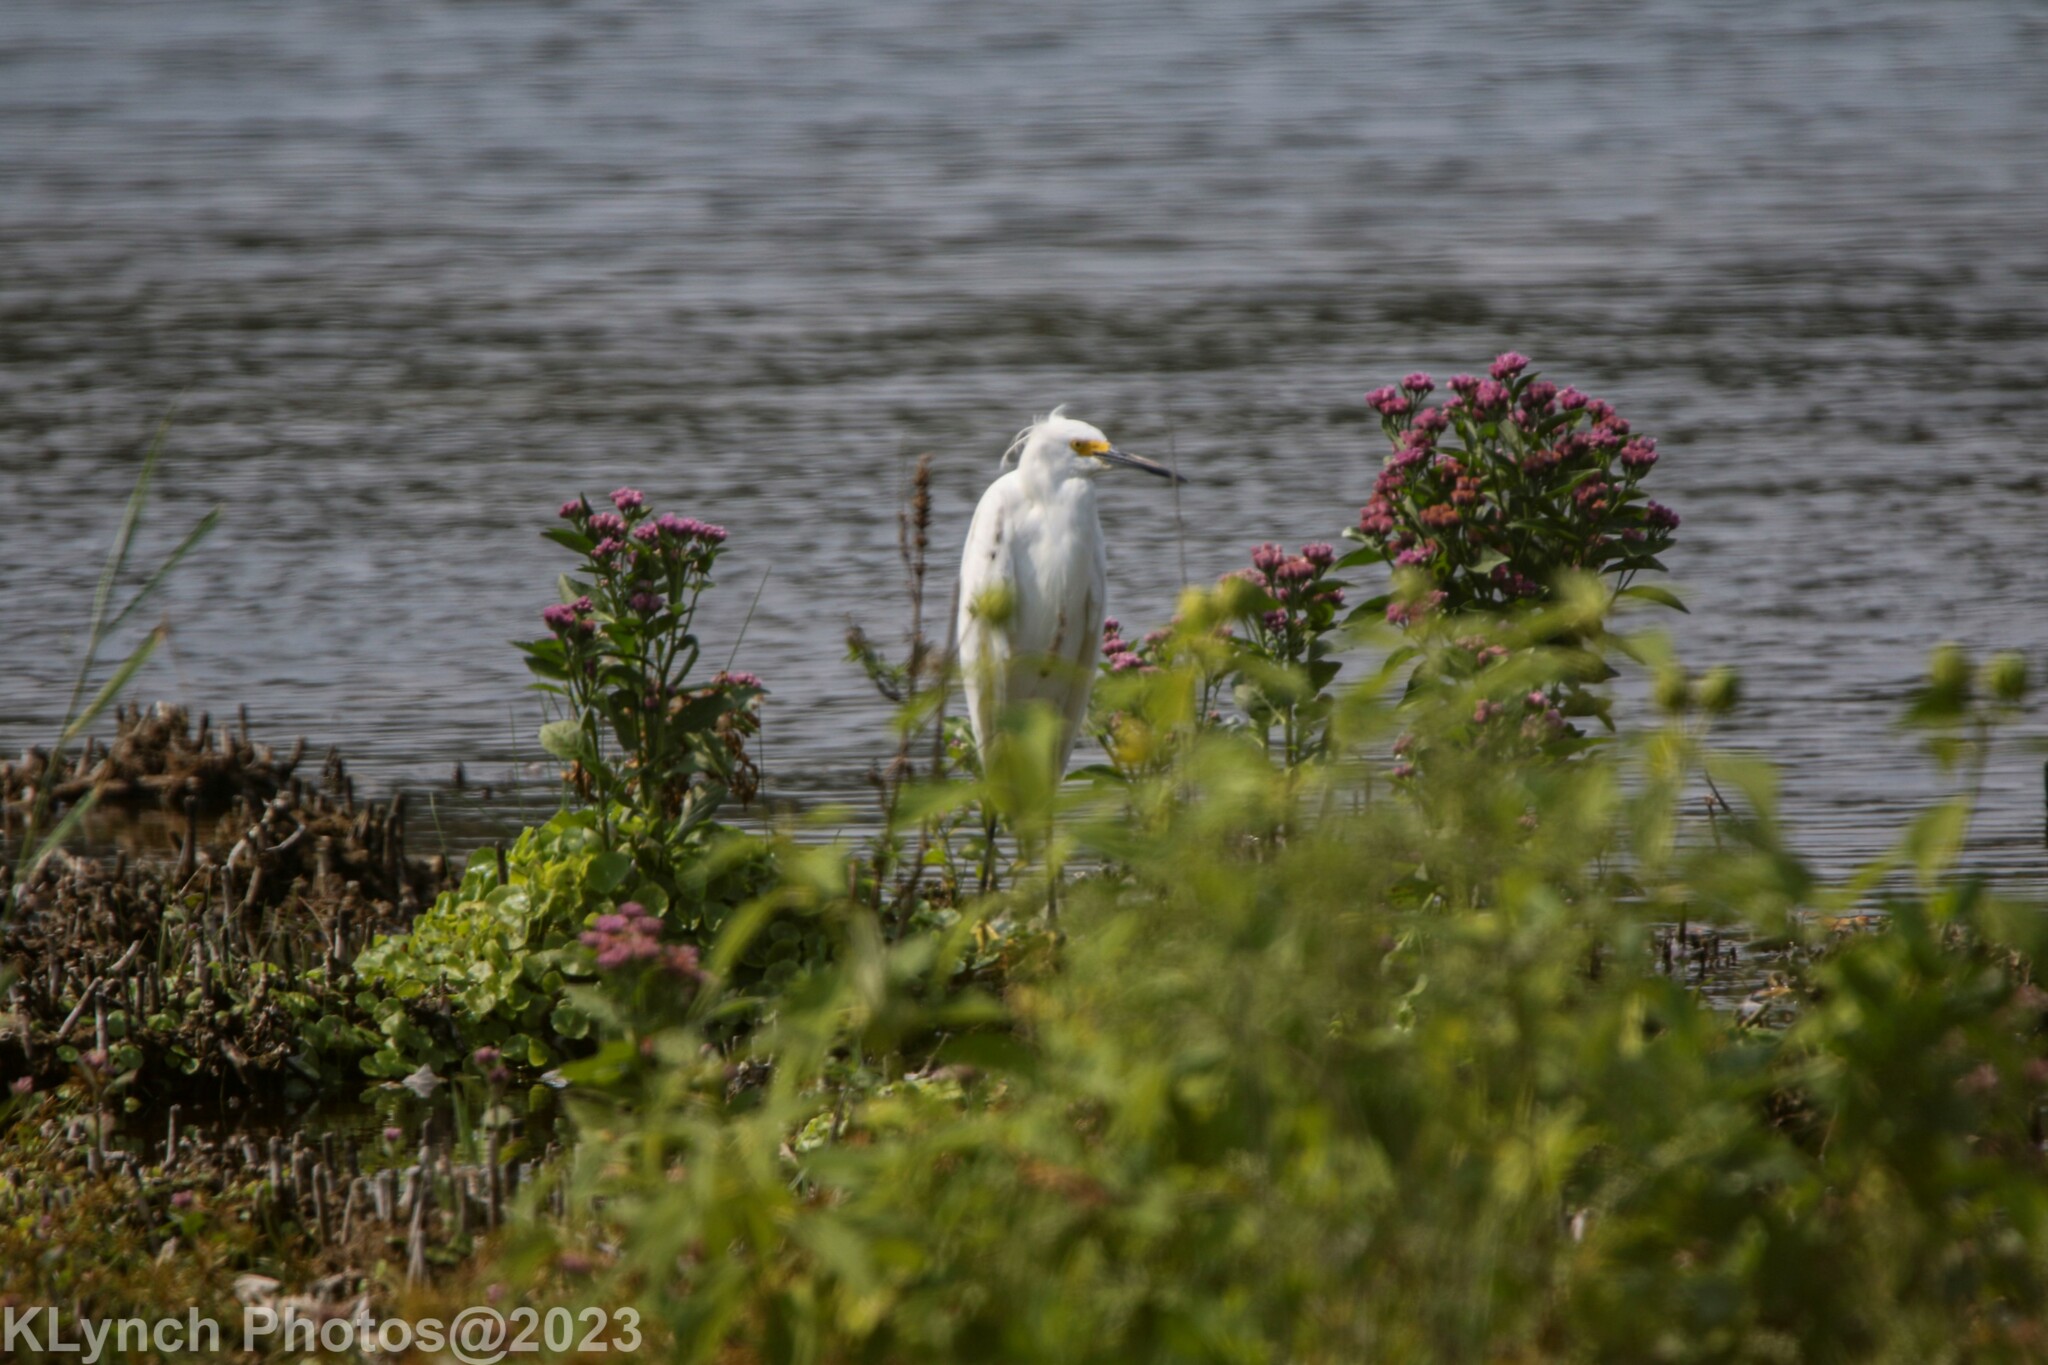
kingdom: Animalia
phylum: Chordata
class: Aves
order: Pelecaniformes
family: Ardeidae
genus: Egretta
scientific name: Egretta thula
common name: Snowy egret
